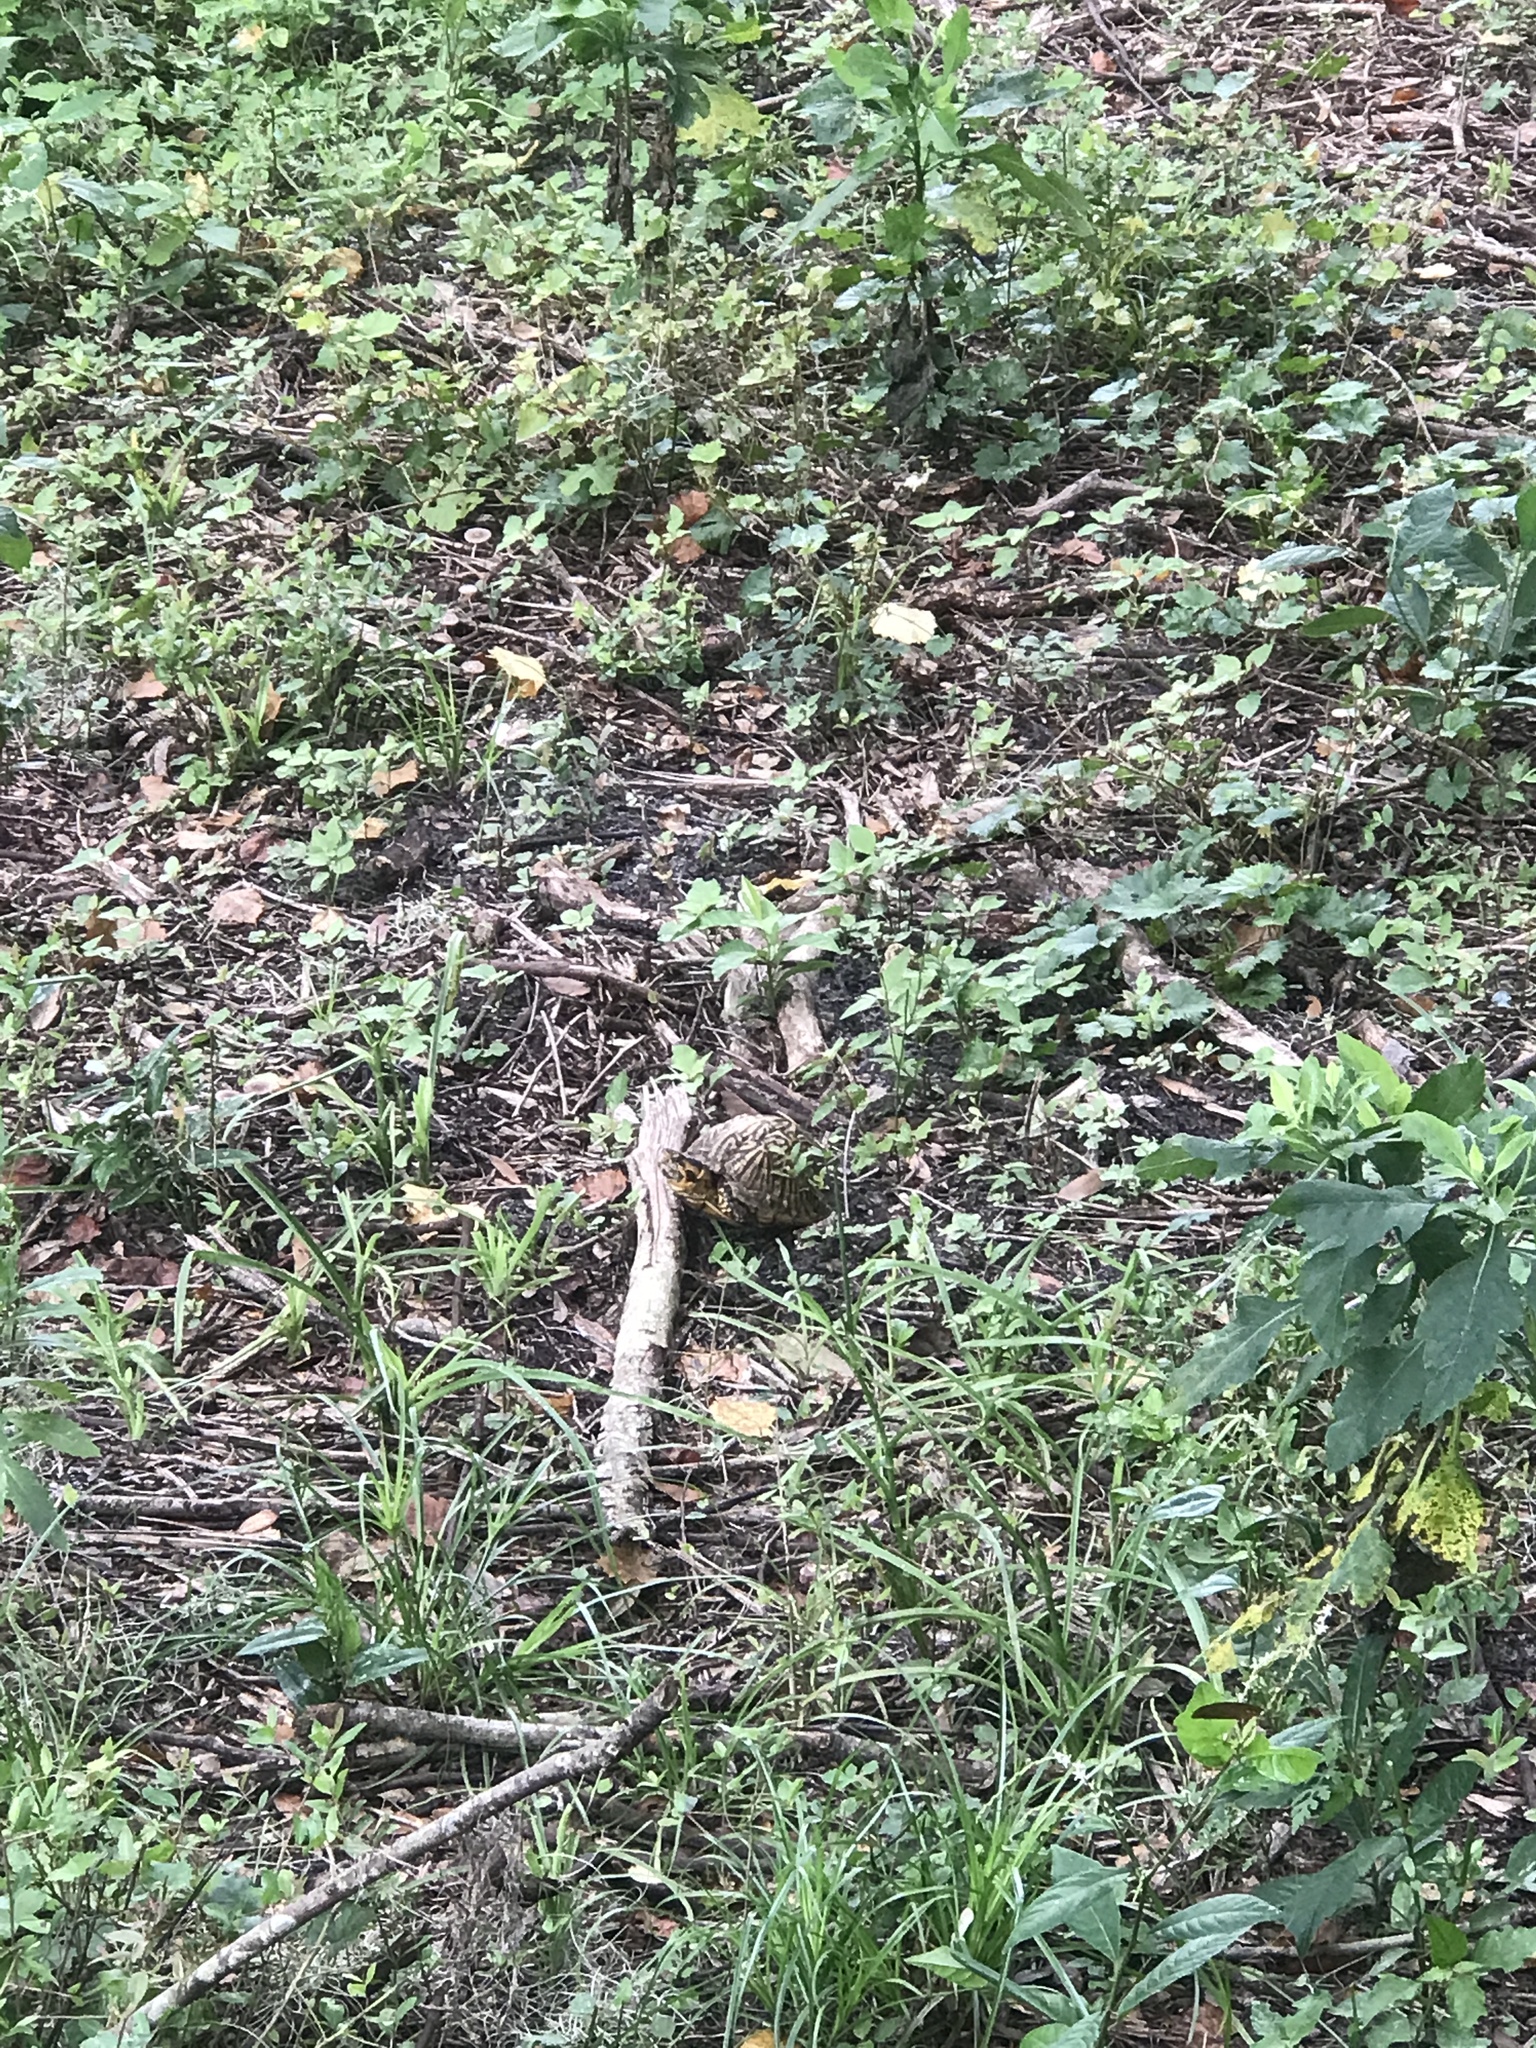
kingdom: Animalia
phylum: Chordata
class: Testudines
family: Emydidae
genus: Terrapene
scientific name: Terrapene carolina
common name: Common box turtle
